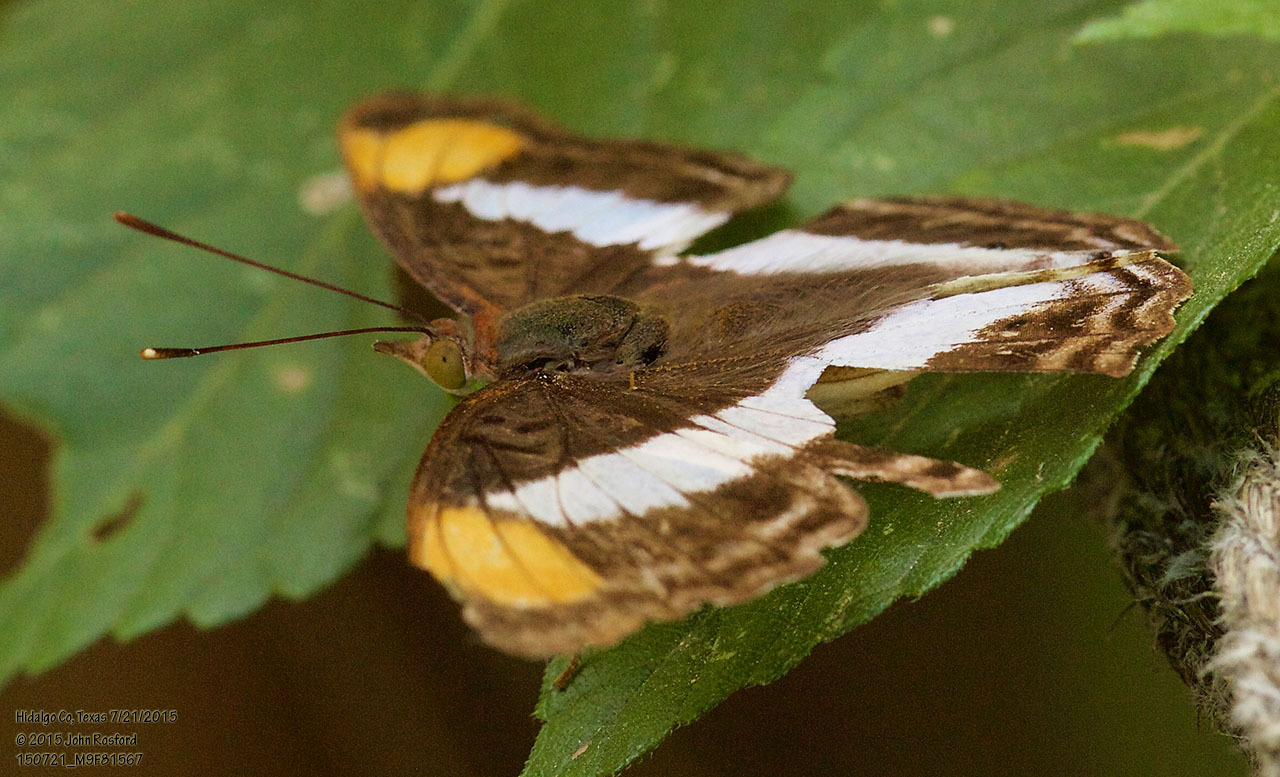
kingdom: Animalia
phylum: Arthropoda
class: Insecta
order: Lepidoptera
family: Nymphalidae
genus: Doxocopa
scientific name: Doxocopa pavon
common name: Pavon emperor
